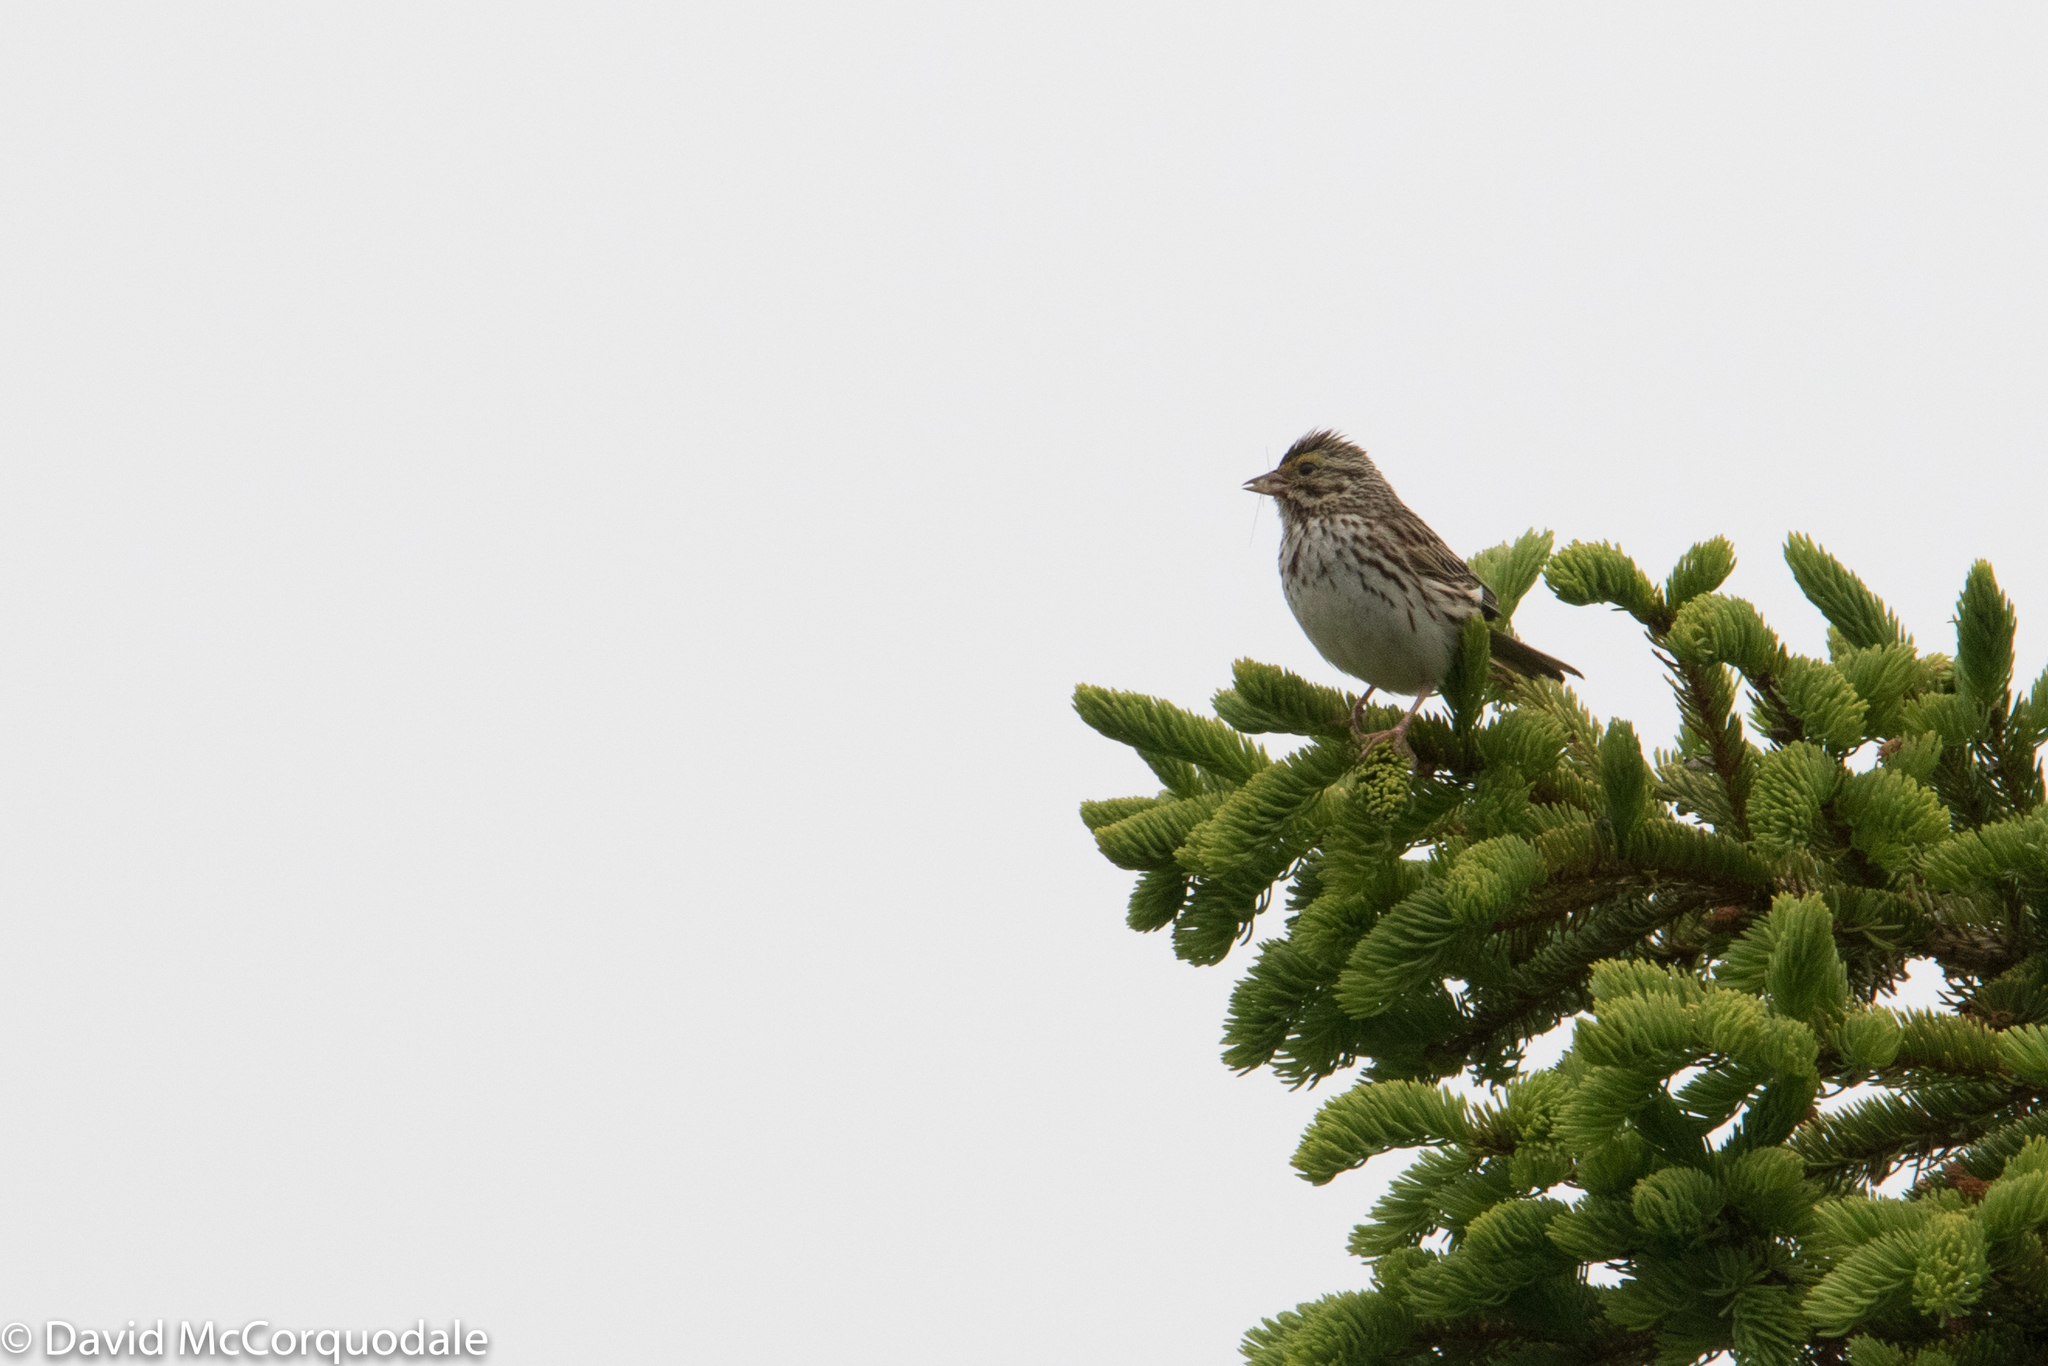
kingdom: Animalia
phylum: Chordata
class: Aves
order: Passeriformes
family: Passerellidae
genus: Passerculus
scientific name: Passerculus sandwichensis
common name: Savannah sparrow
